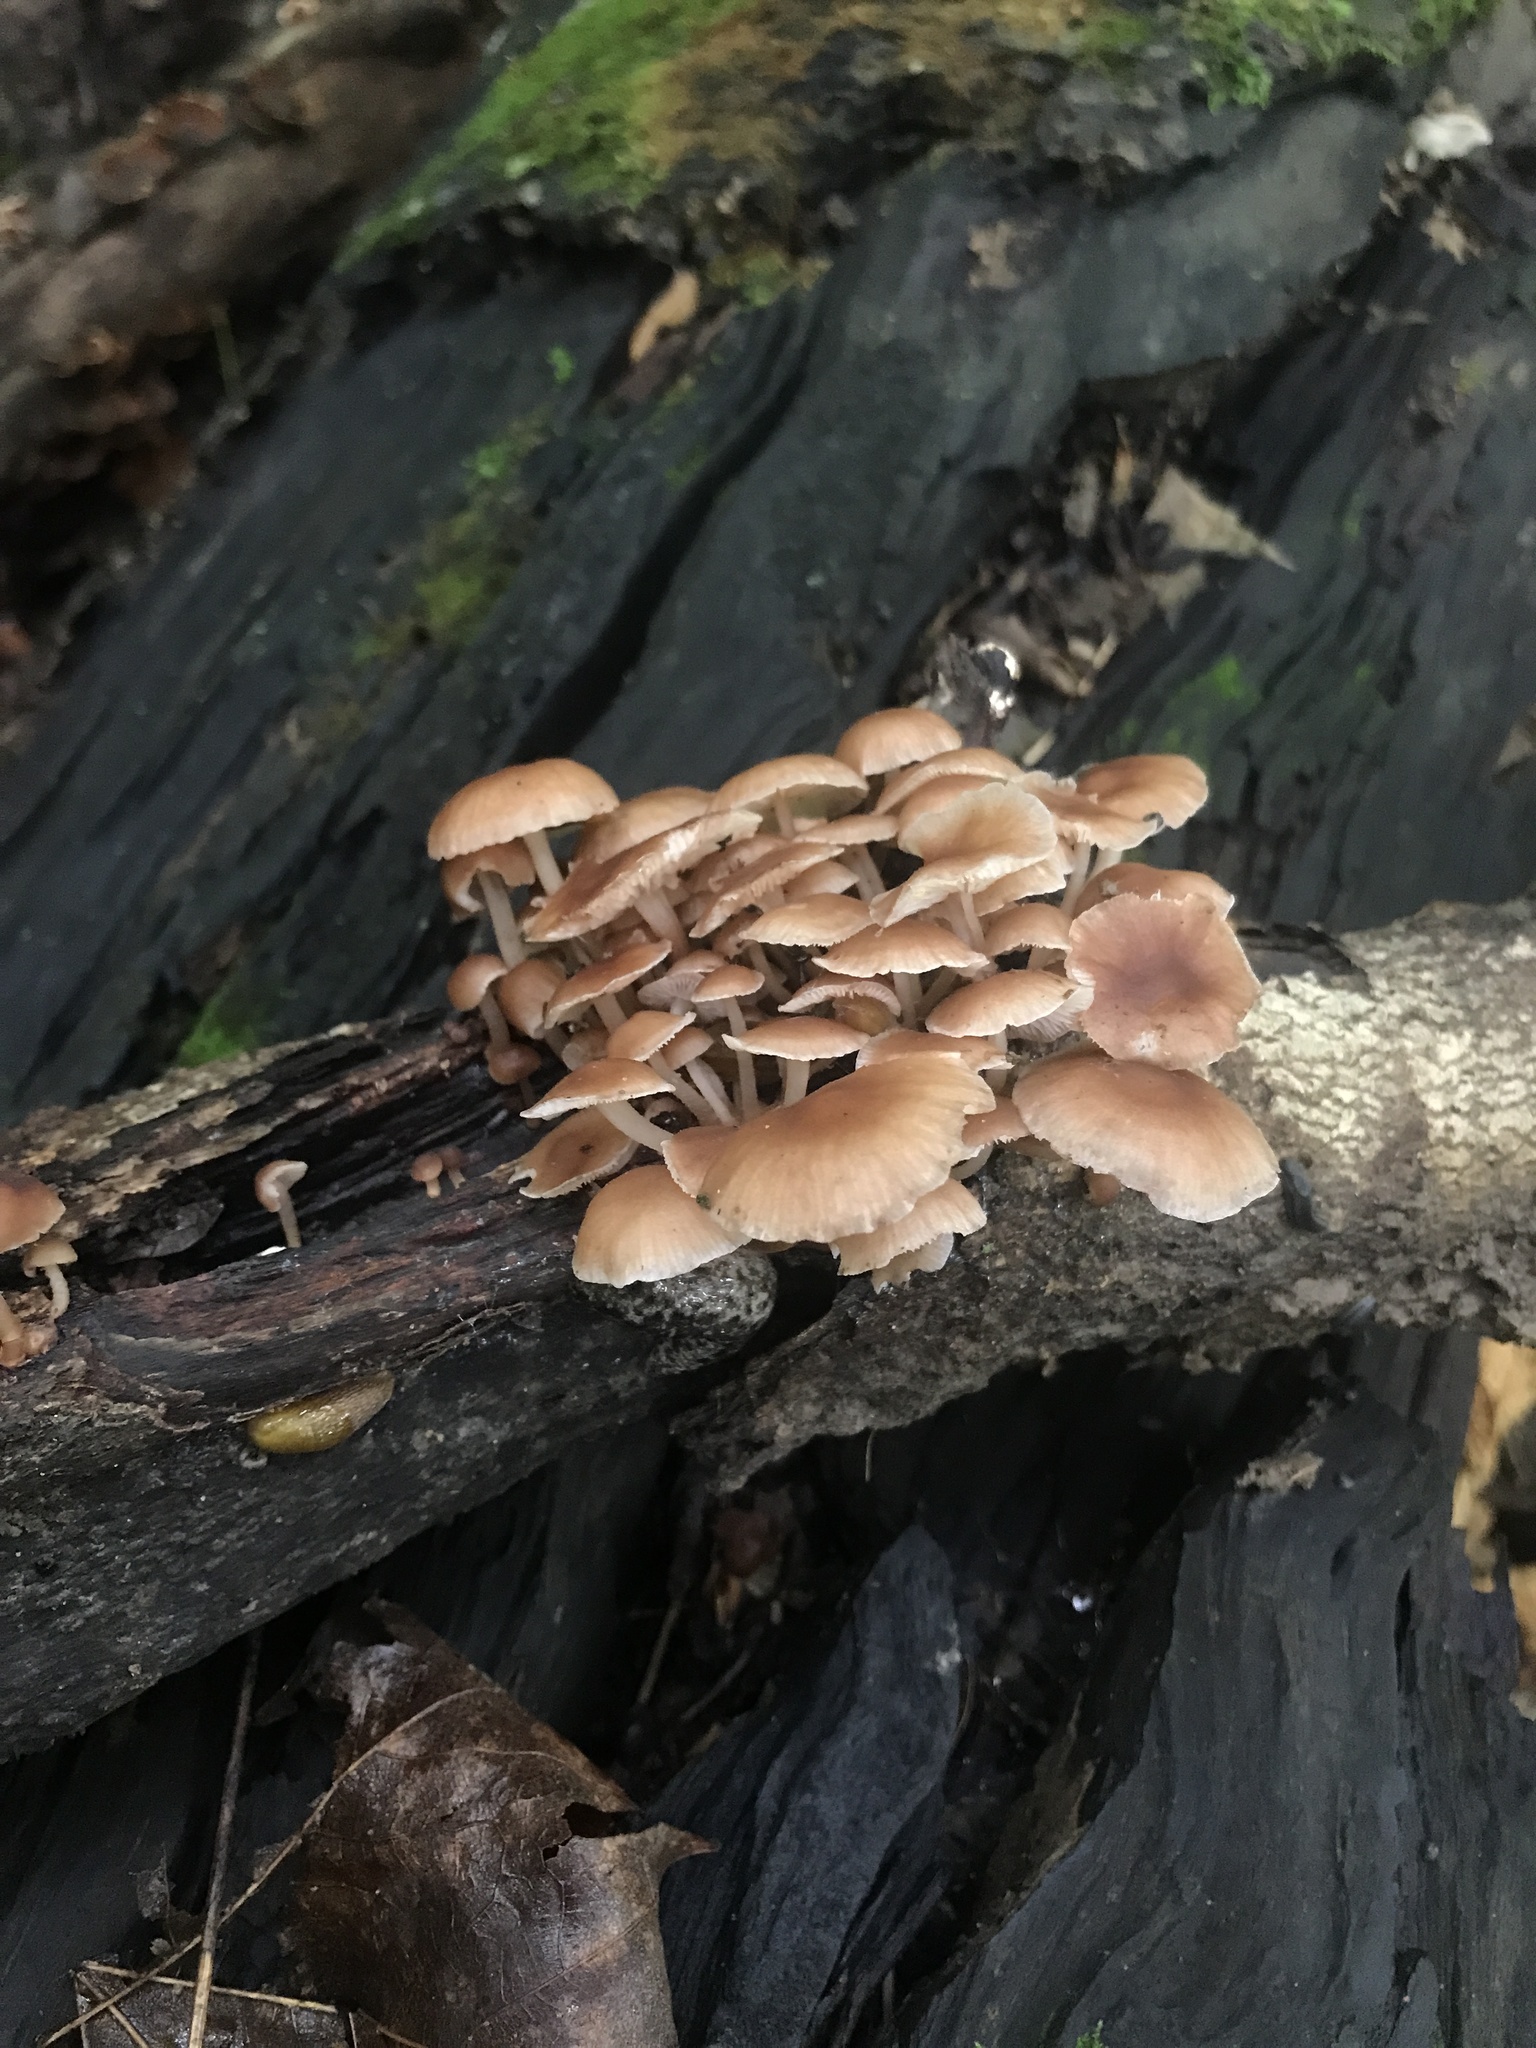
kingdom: Fungi
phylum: Basidiomycota
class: Agaricomycetes
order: Agaricales
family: Omphalotaceae
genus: Collybiopsis
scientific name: Collybiopsis dichroa
